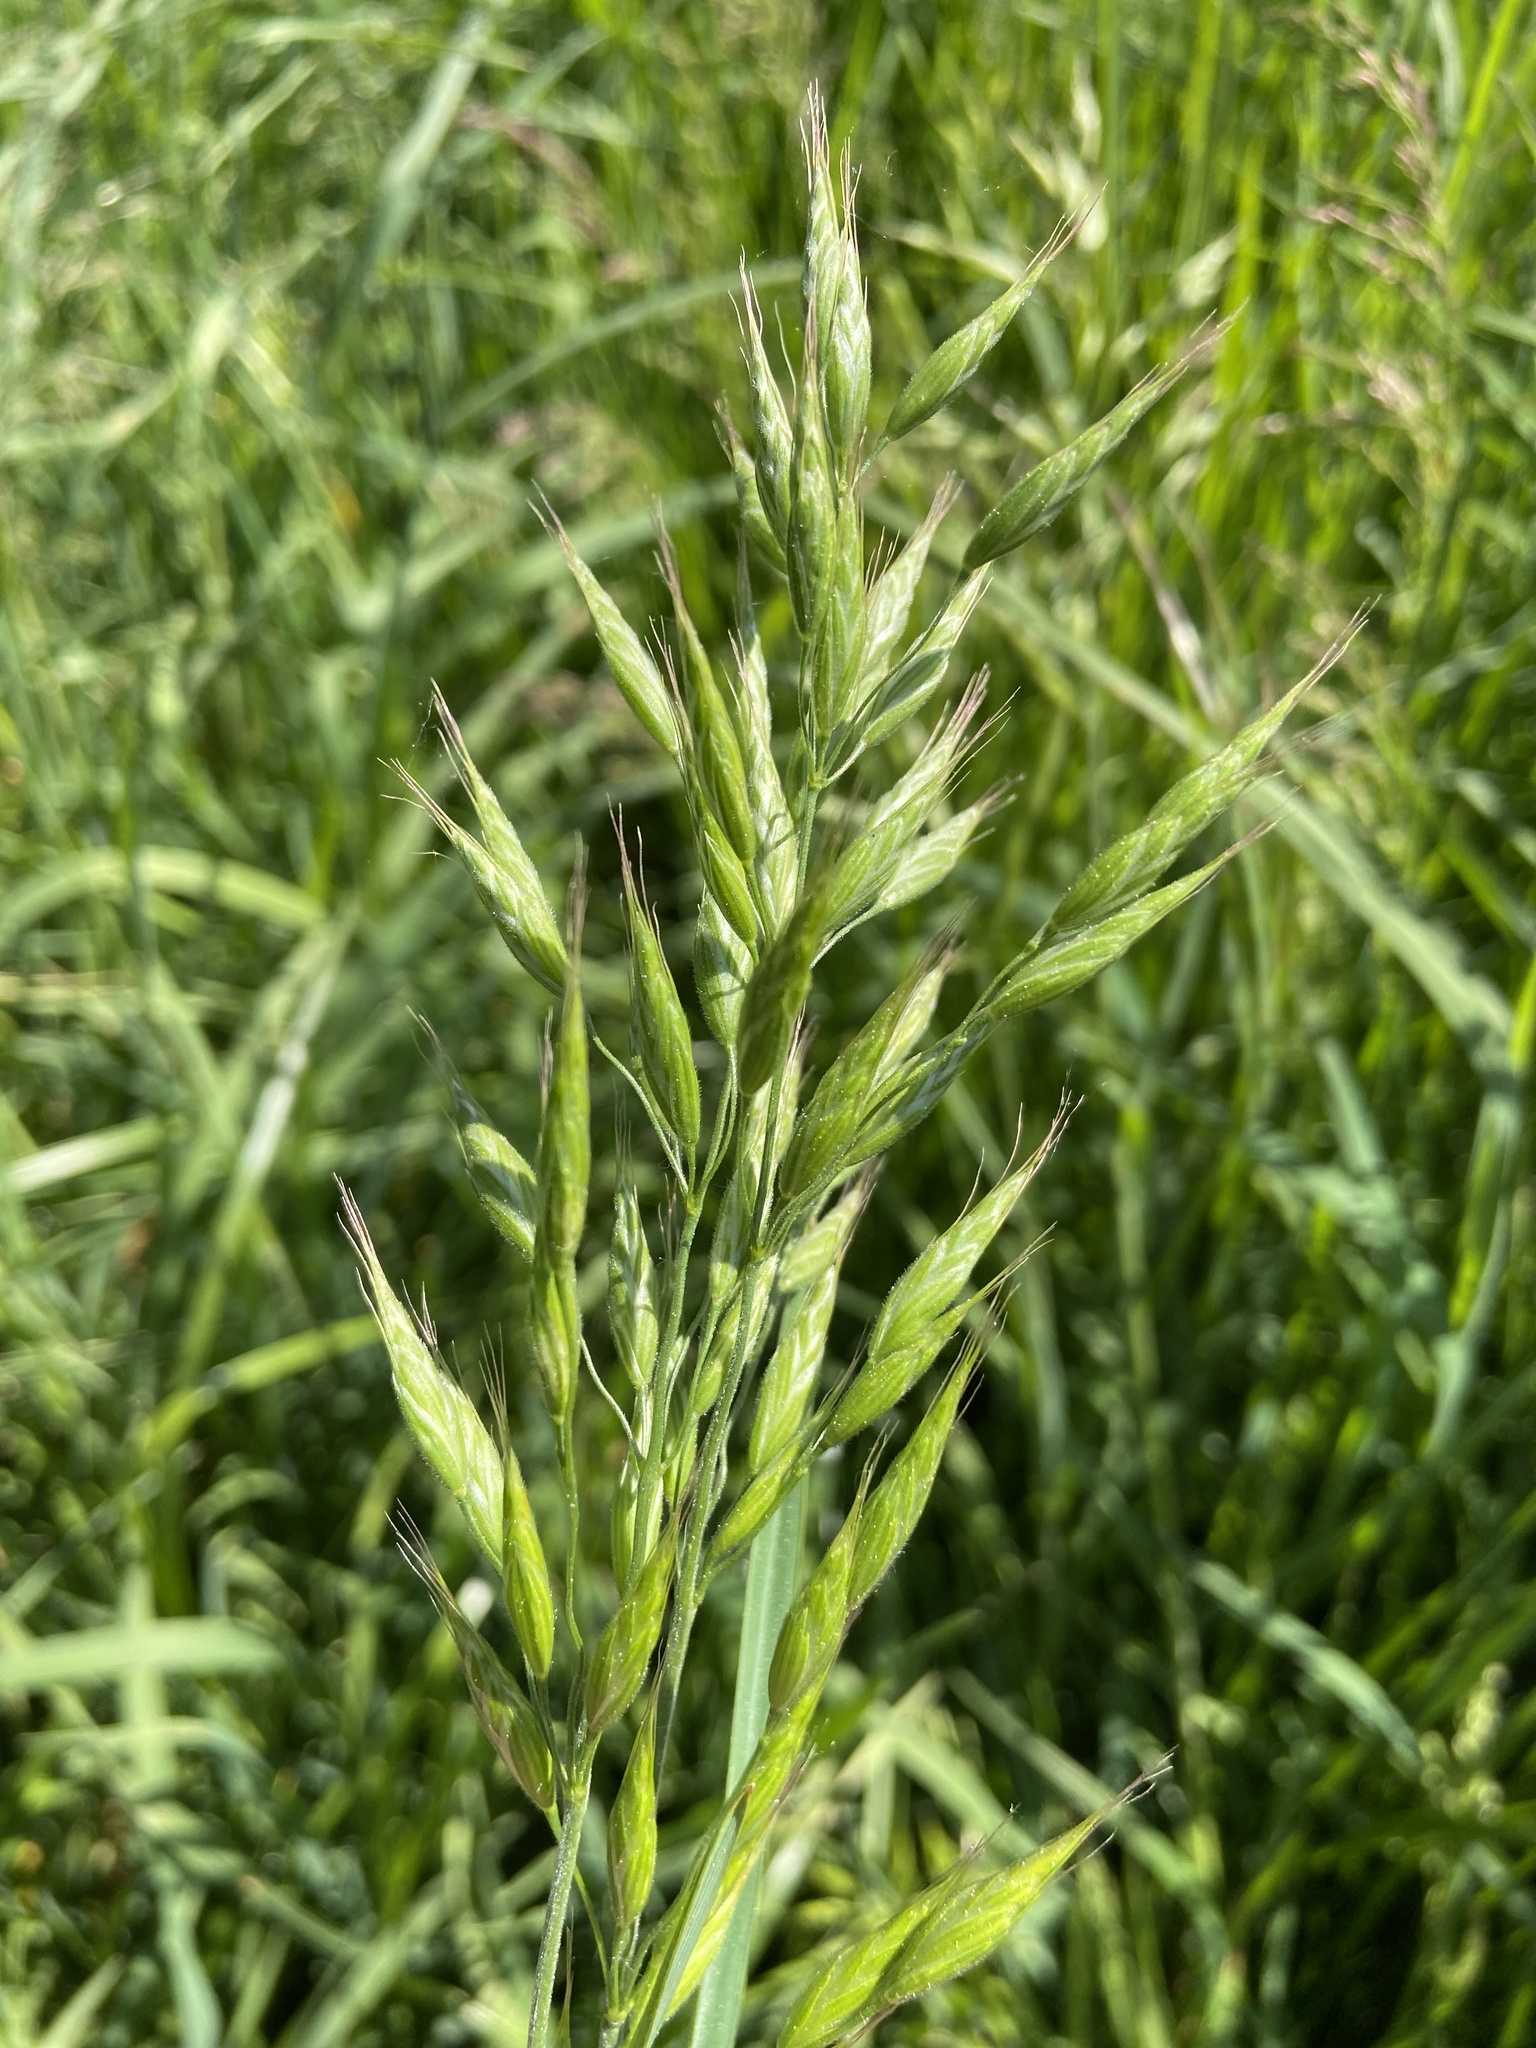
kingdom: Plantae
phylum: Tracheophyta
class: Liliopsida
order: Poales
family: Poaceae
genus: Bromus
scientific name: Bromus hordeaceus
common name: Soft brome
